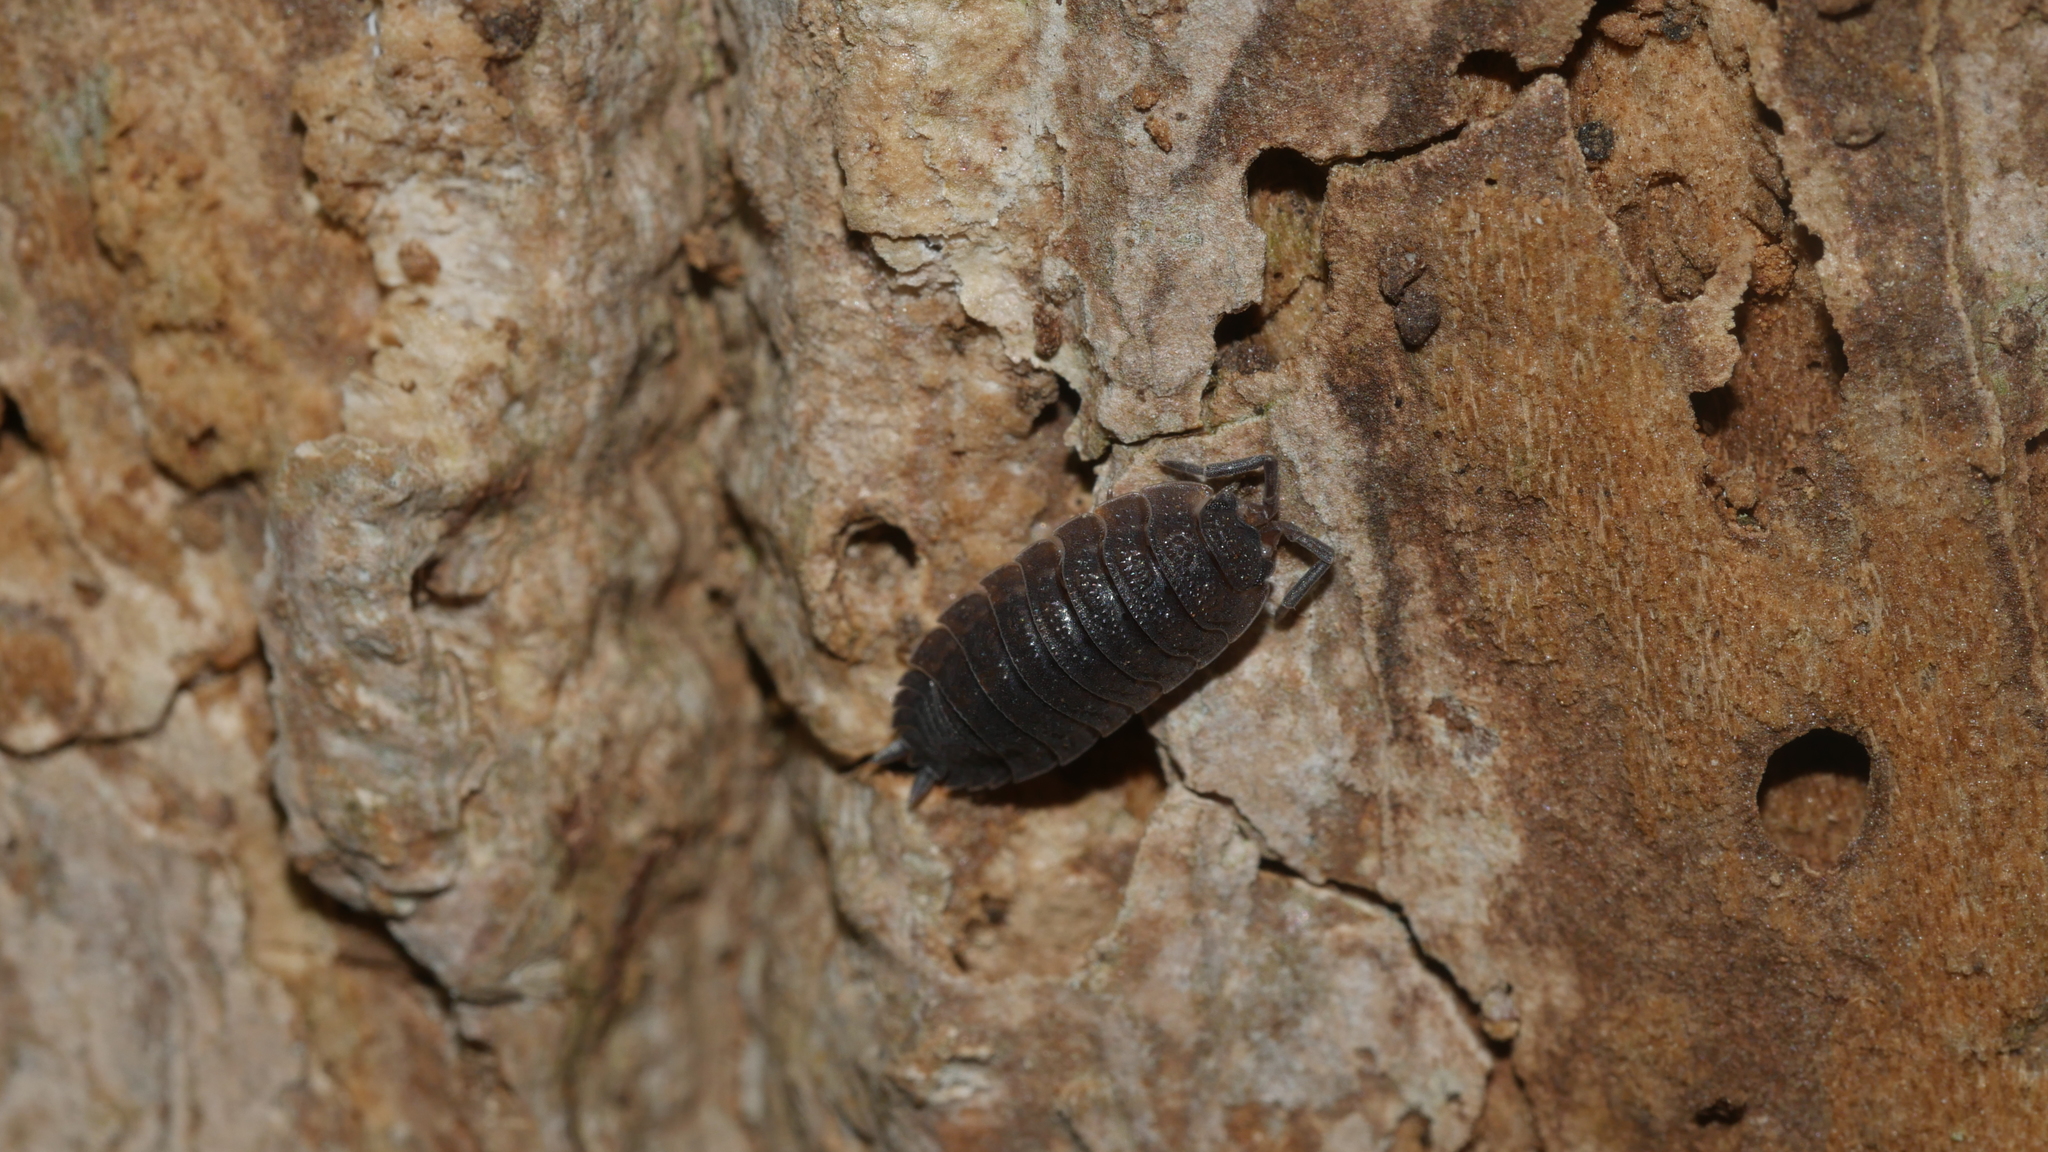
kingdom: Animalia
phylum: Arthropoda
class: Malacostraca
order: Isopoda
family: Porcellionidae
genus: Porcellio
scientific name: Porcellio scaber
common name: Common rough woodlouse
